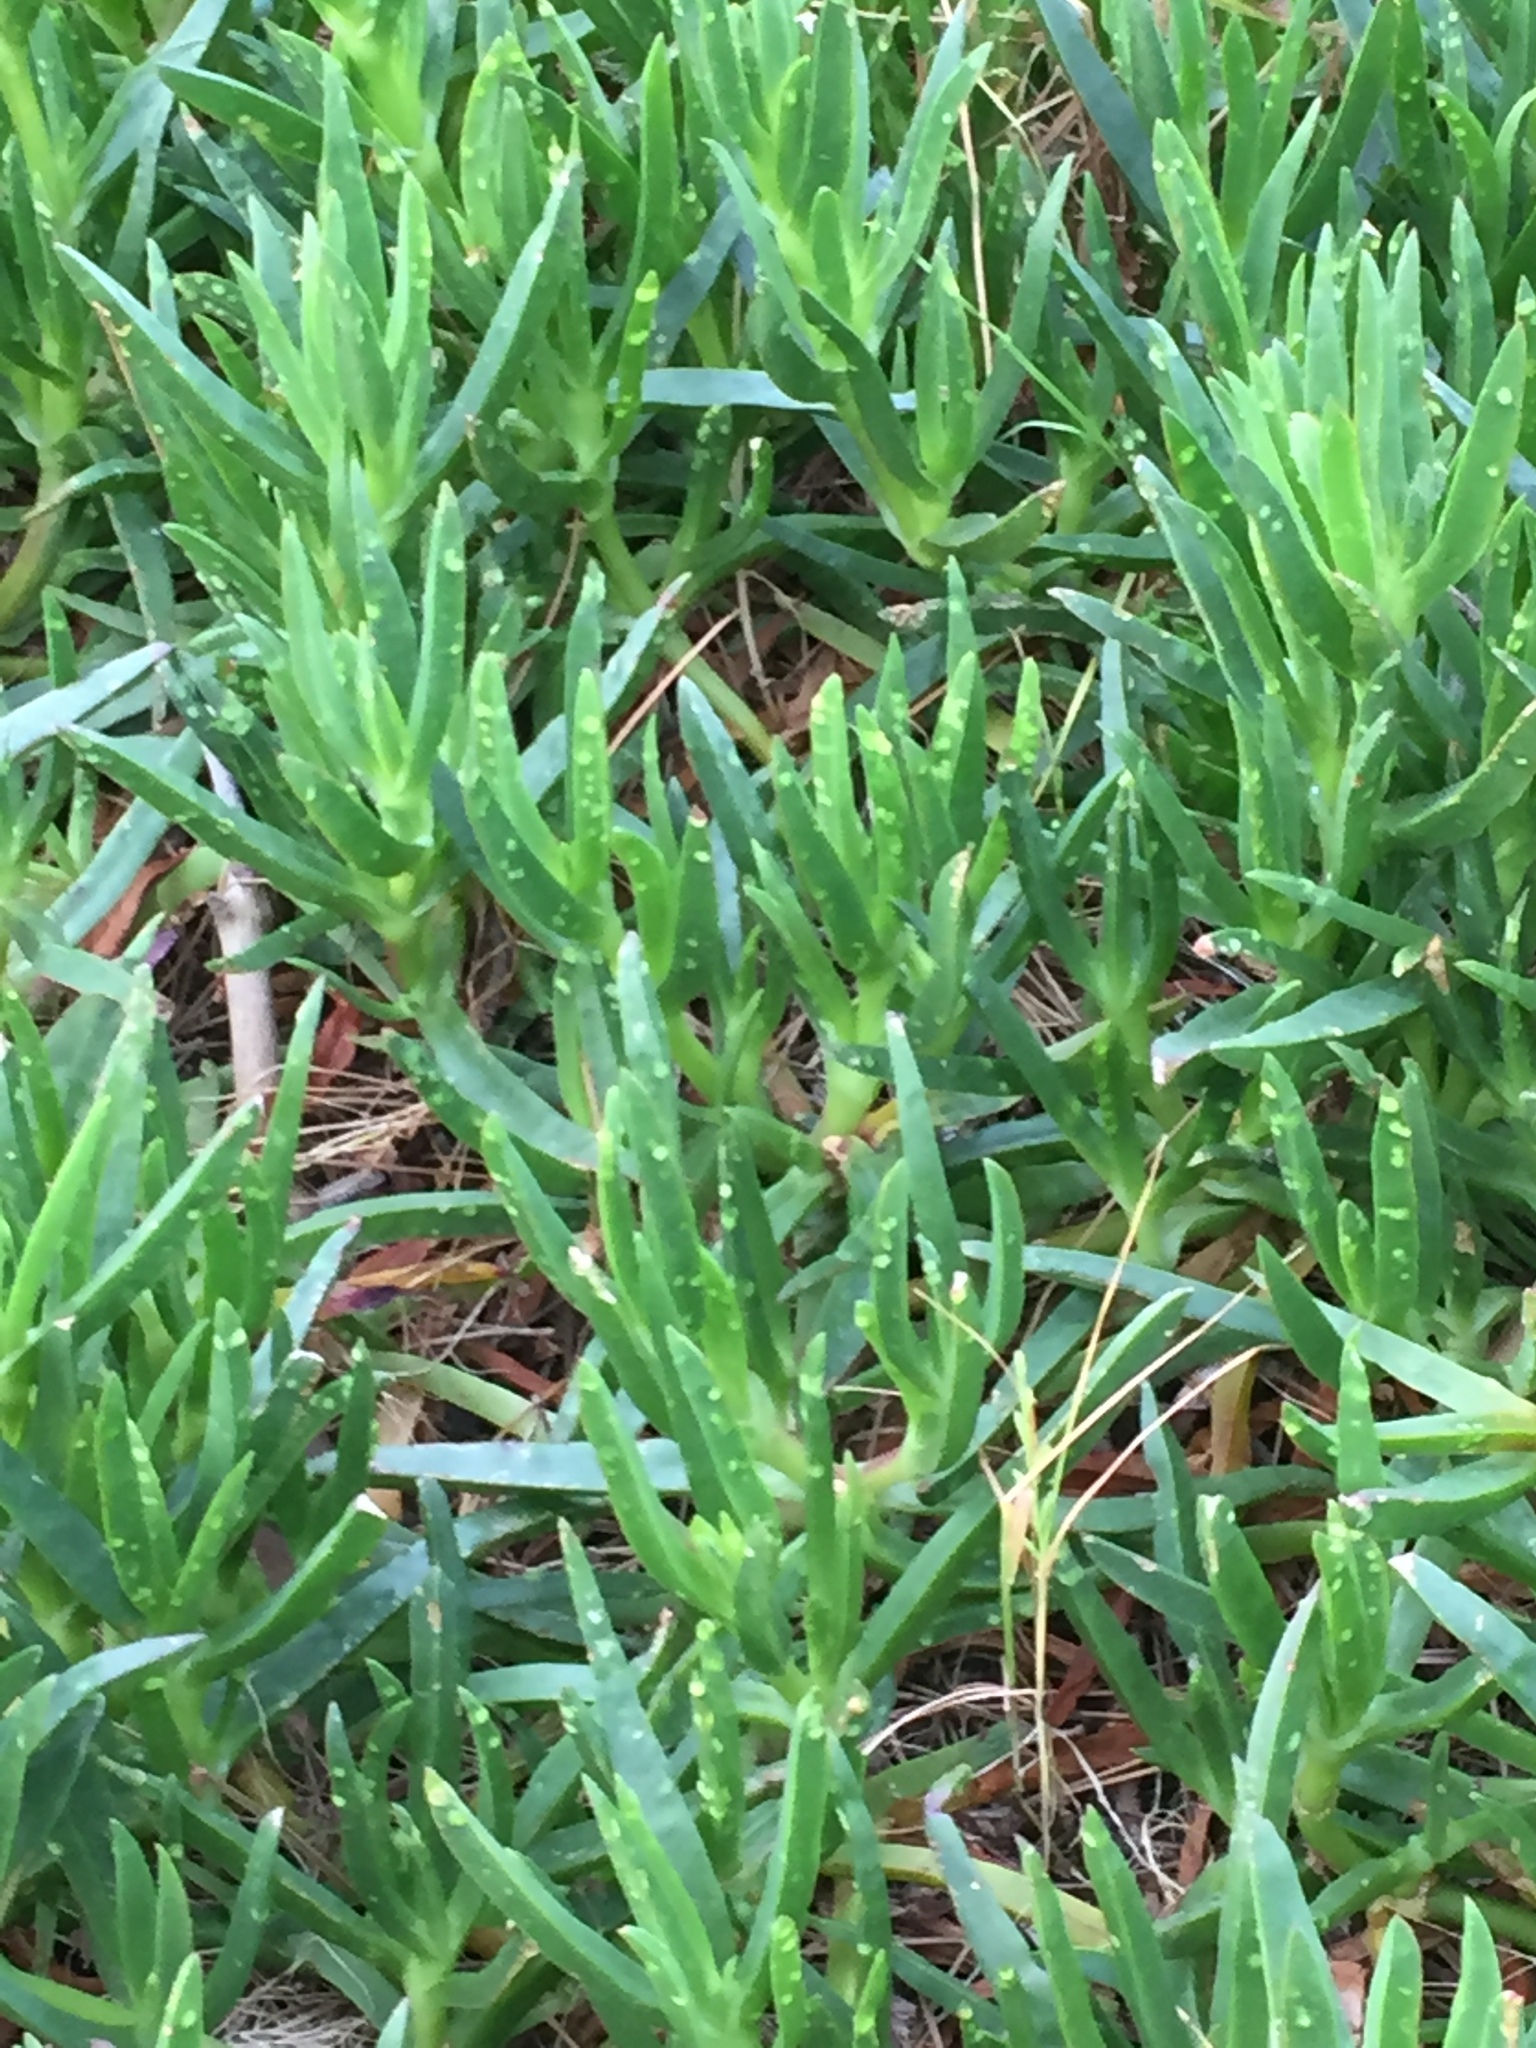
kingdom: Plantae
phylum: Tracheophyta
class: Magnoliopsida
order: Caryophyllales
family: Aizoaceae
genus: Carpobrotus
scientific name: Carpobrotus edulis
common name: Hottentot-fig
